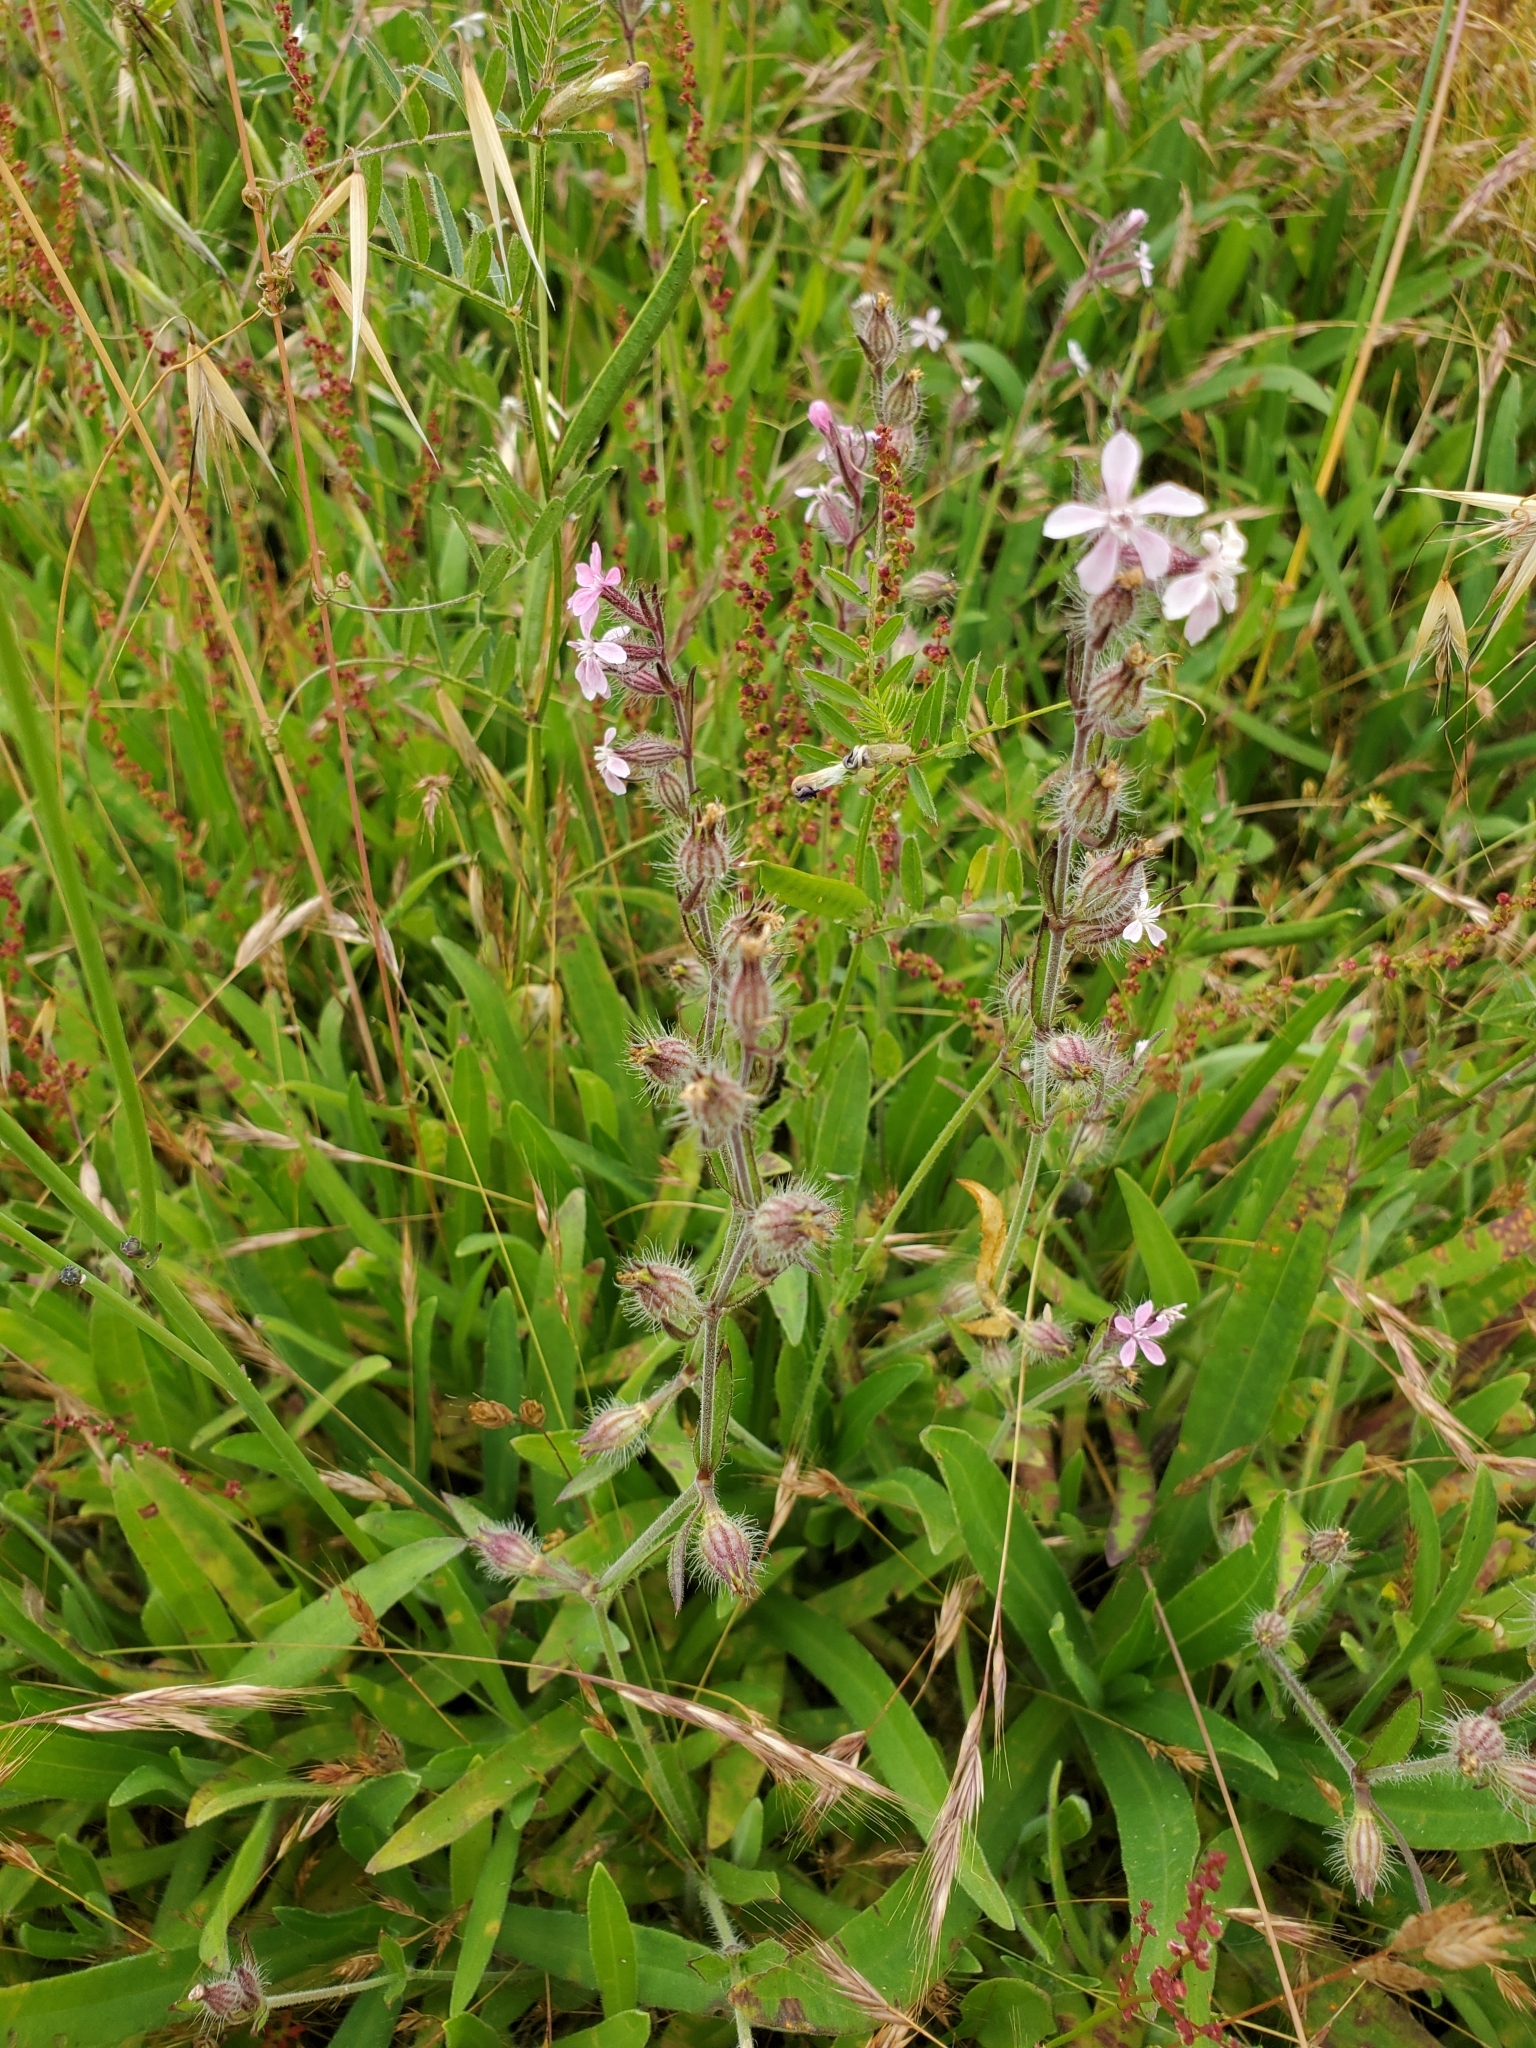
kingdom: Plantae
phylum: Tracheophyta
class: Magnoliopsida
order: Caryophyllales
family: Caryophyllaceae
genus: Silene
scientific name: Silene gallica
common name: Small-flowered catchfly
